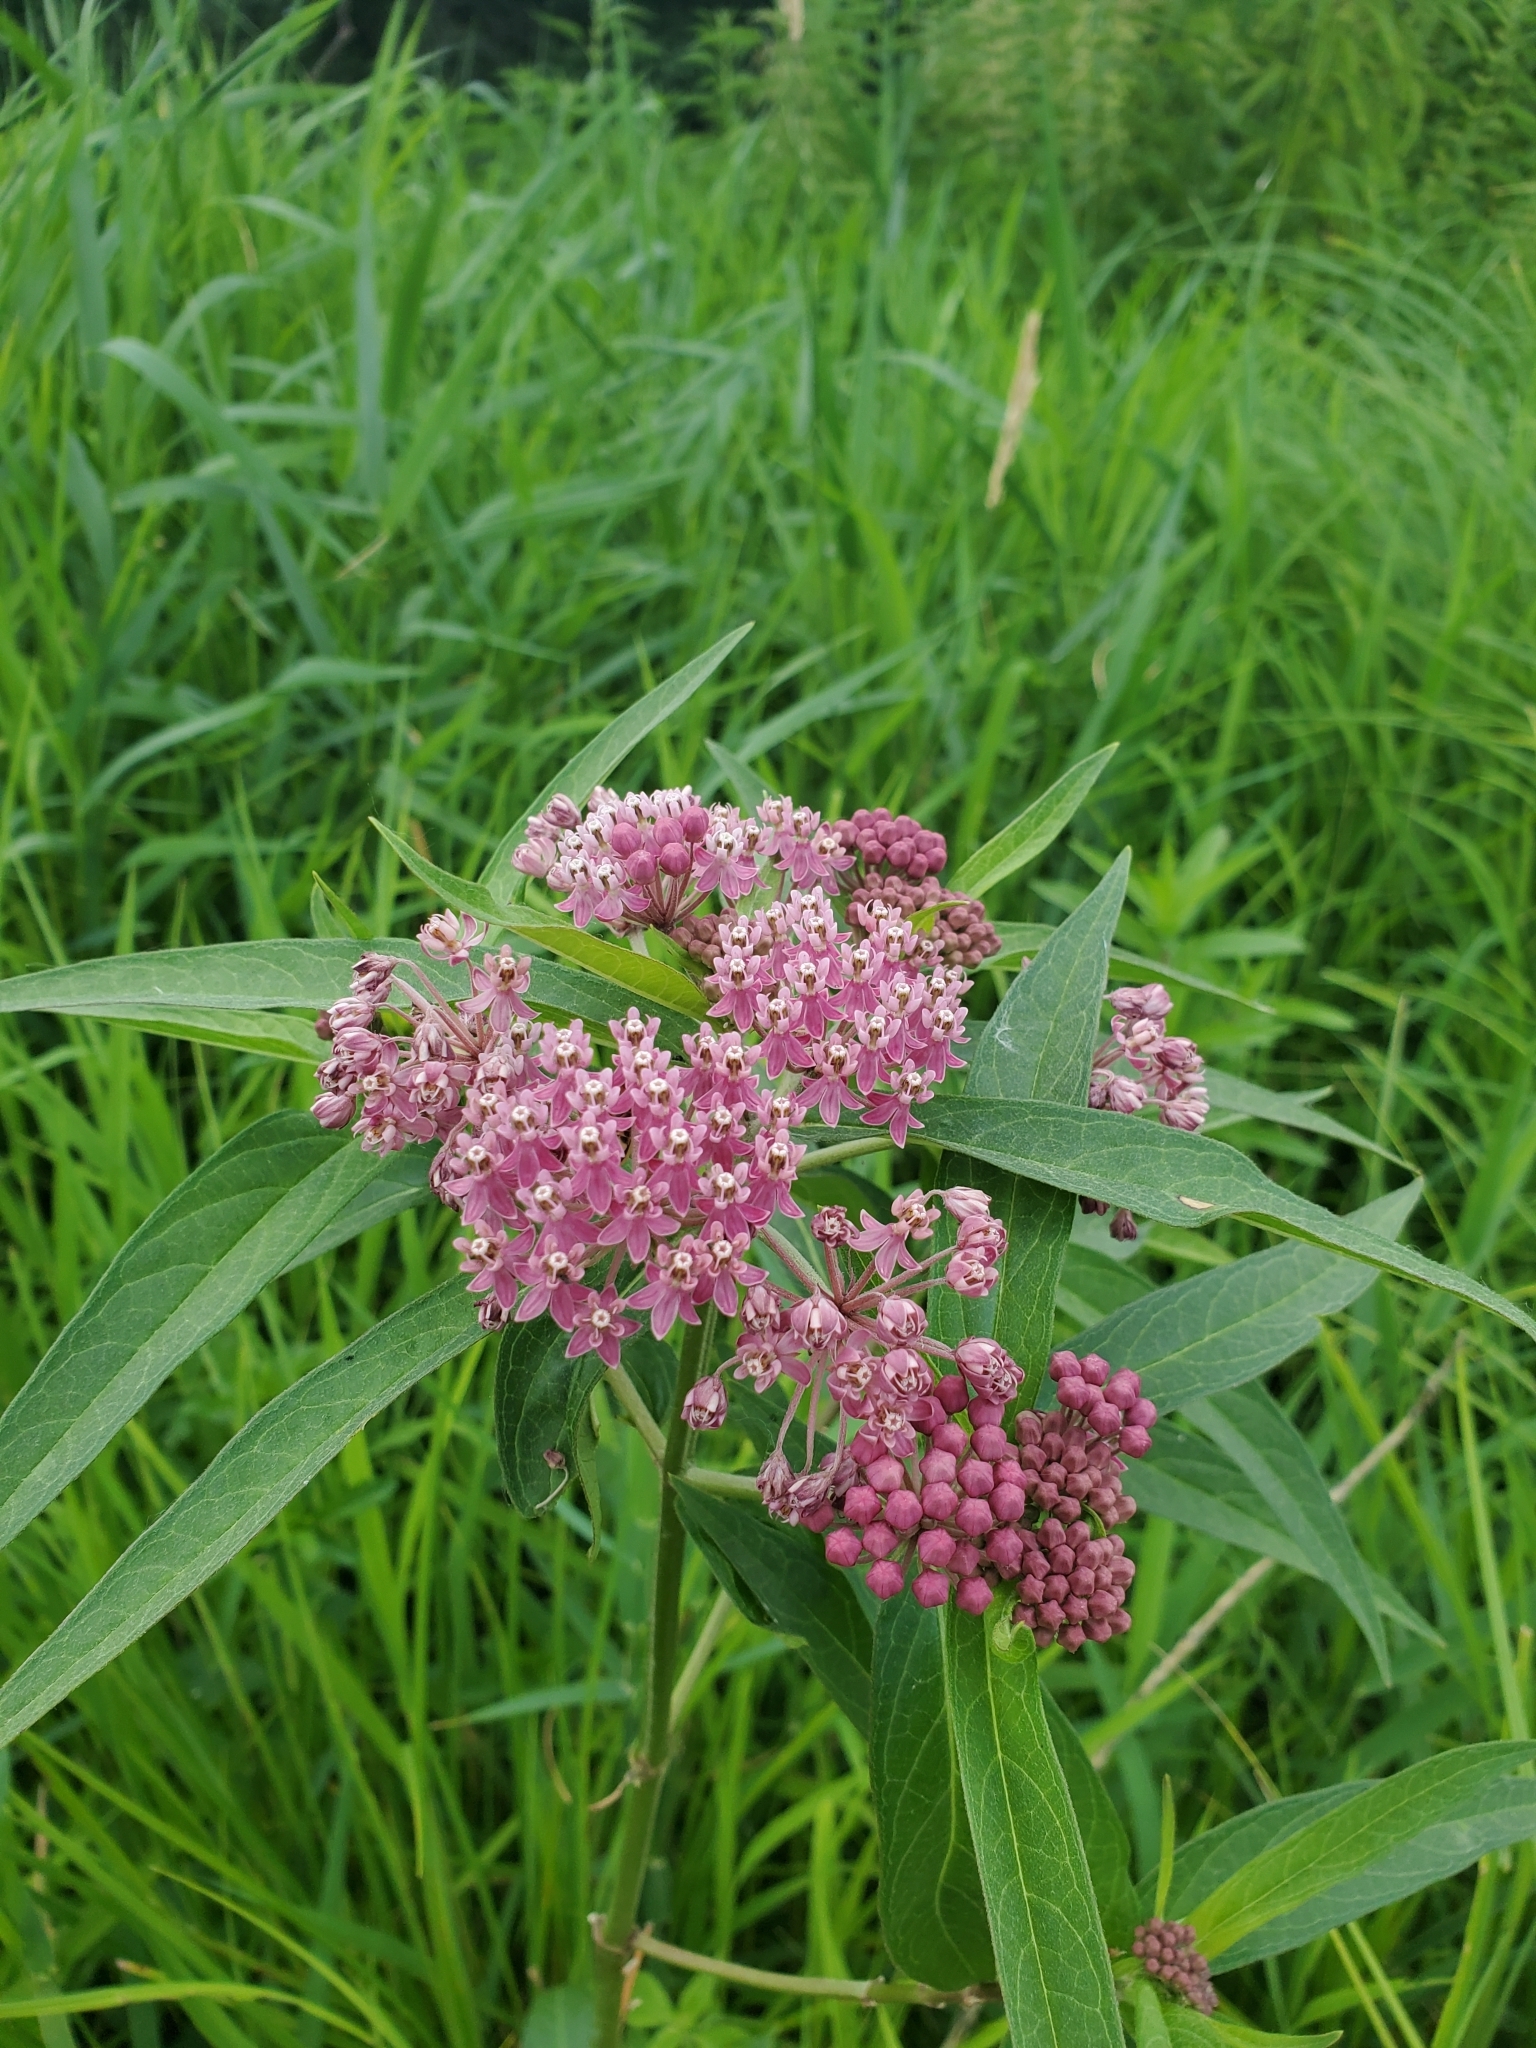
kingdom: Plantae
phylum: Tracheophyta
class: Magnoliopsida
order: Gentianales
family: Apocynaceae
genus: Asclepias
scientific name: Asclepias incarnata
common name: Swamp milkweed
